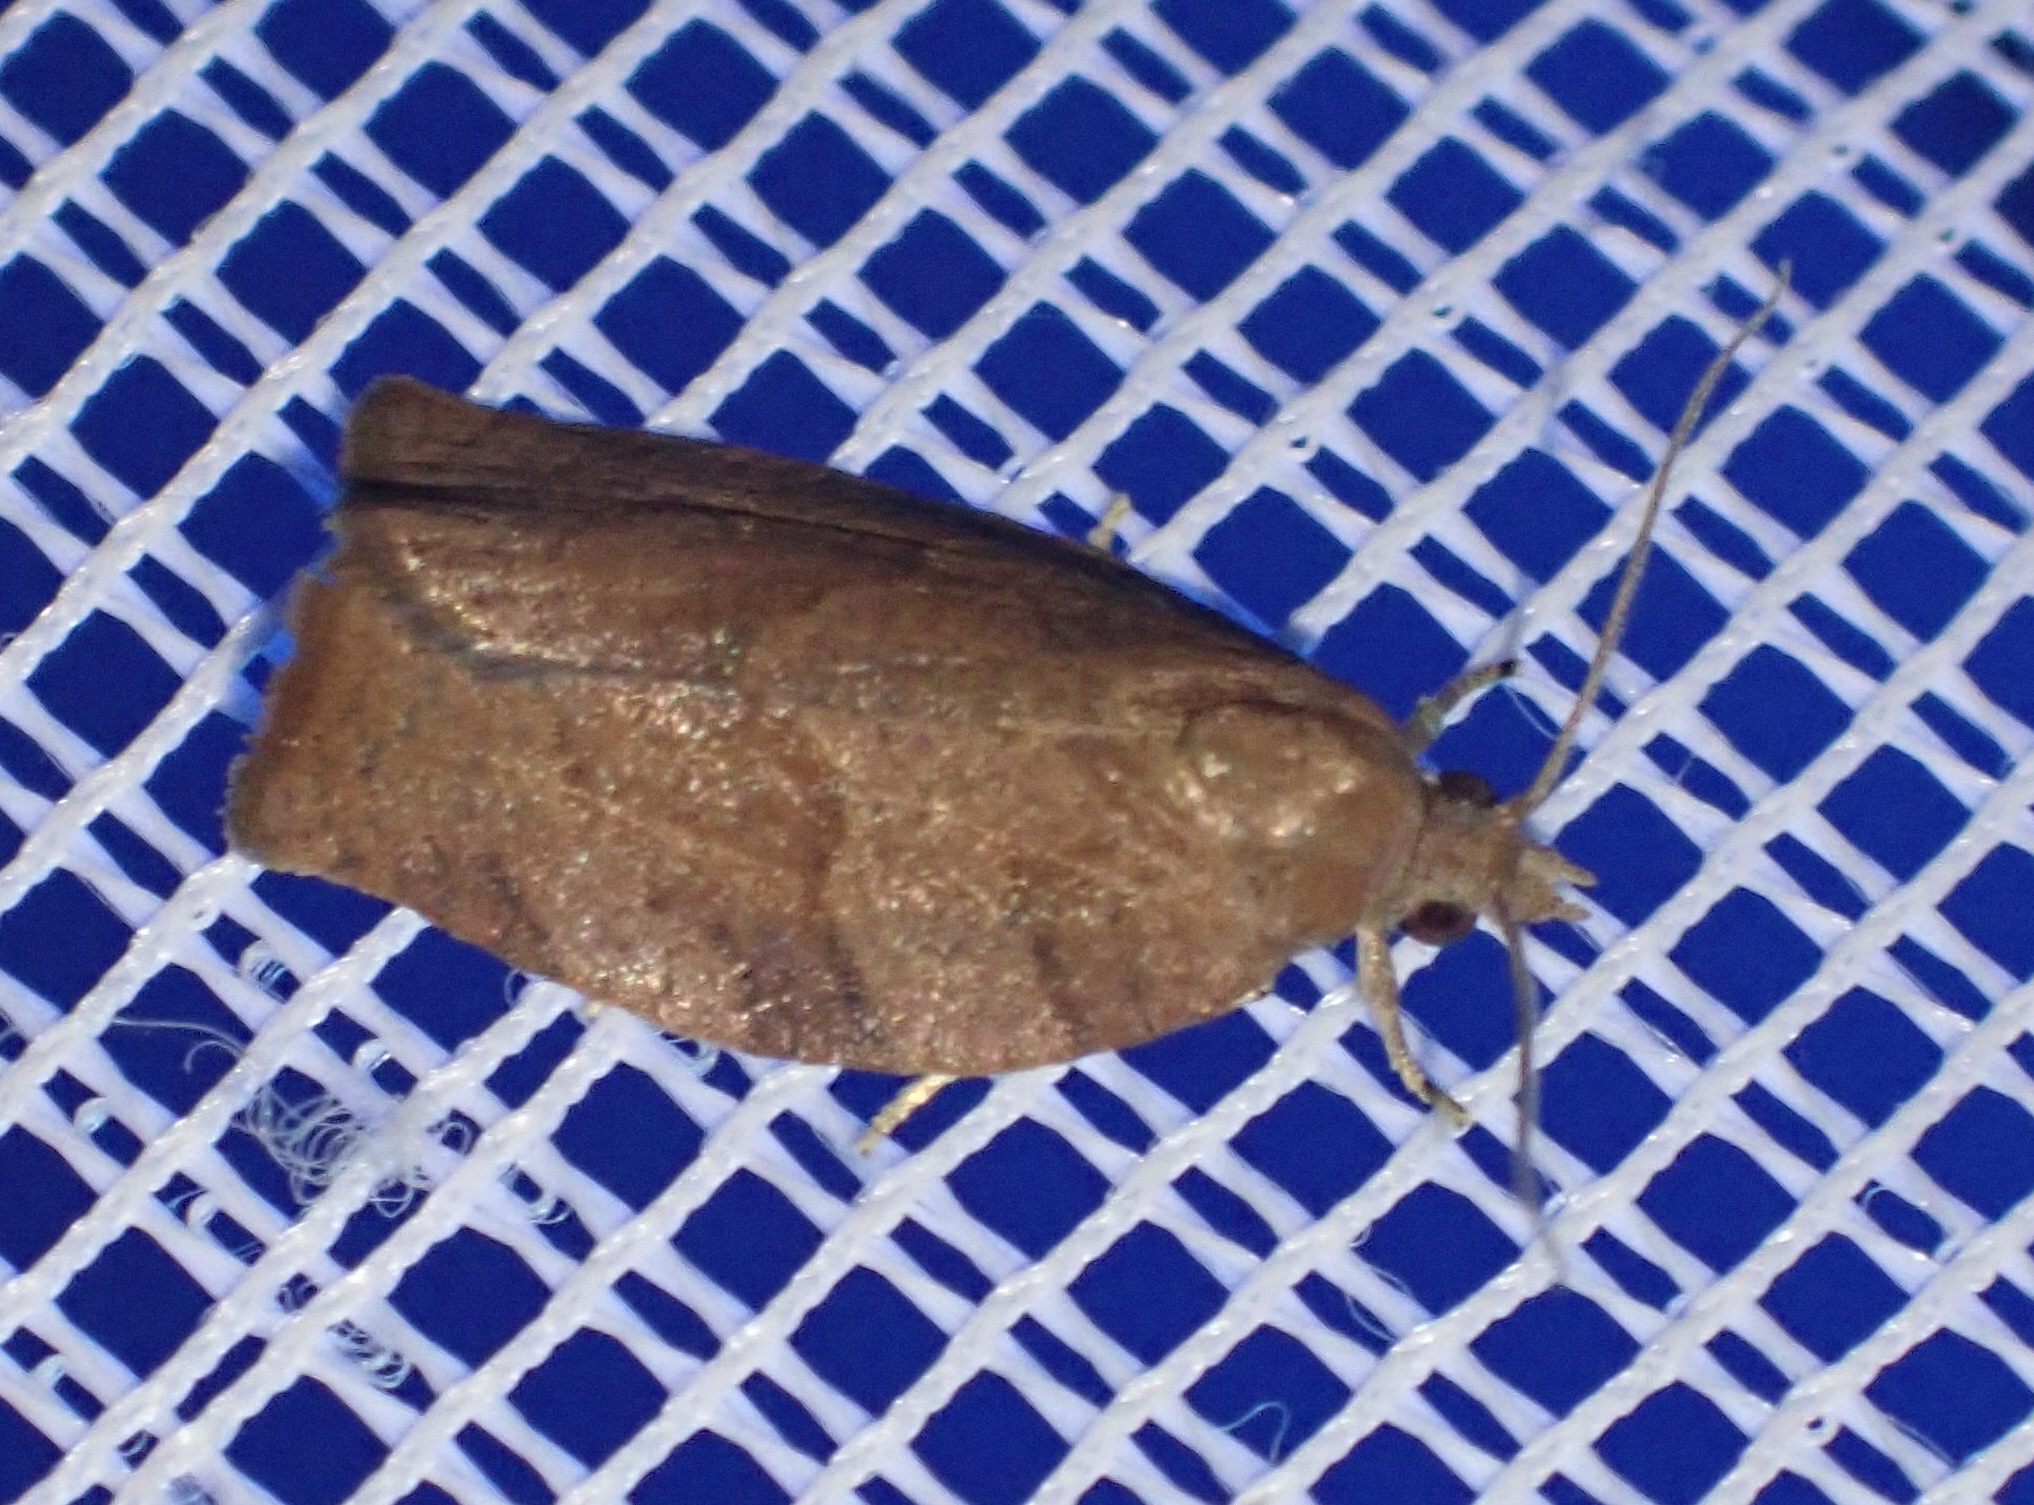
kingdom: Animalia
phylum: Arthropoda
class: Insecta
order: Lepidoptera
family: Tortricidae
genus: Pandemis
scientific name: Pandemis heparana
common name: Dark fruit-tree tortrix
